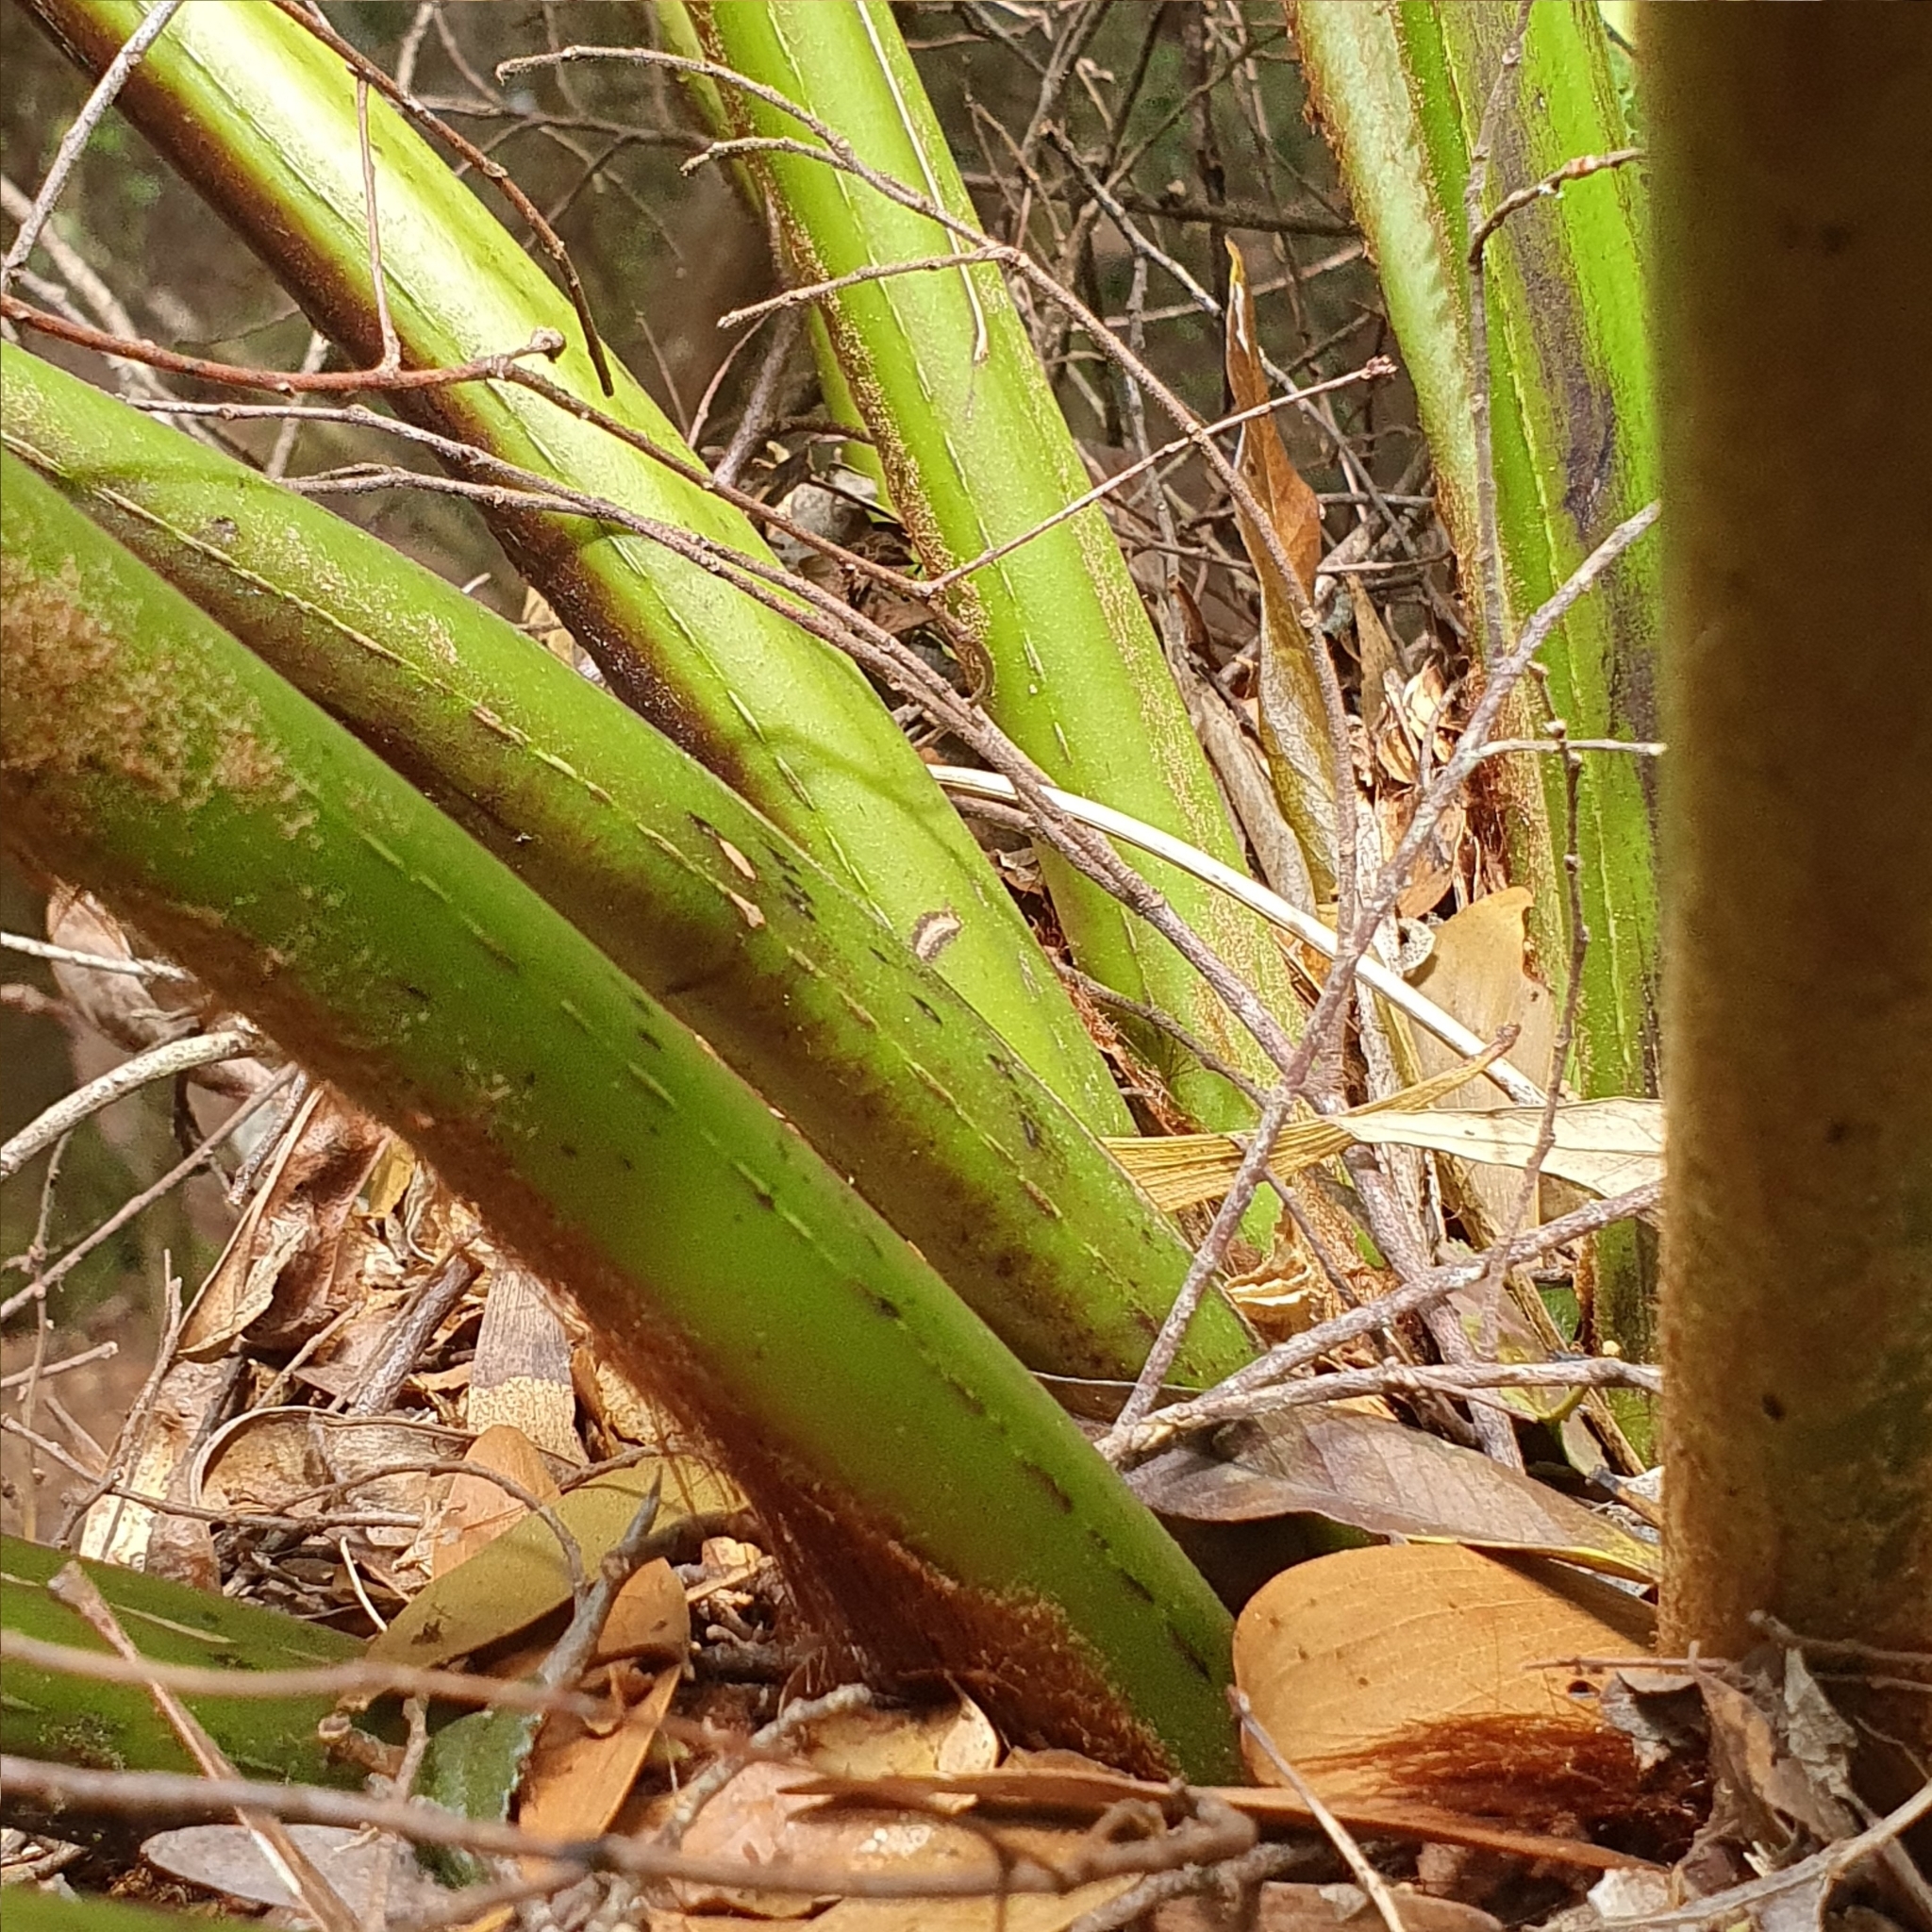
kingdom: Plantae
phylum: Tracheophyta
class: Polypodiopsida
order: Cyatheales
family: Dicksoniaceae
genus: Dicksonia
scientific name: Dicksonia antarctica
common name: Australian treefern
